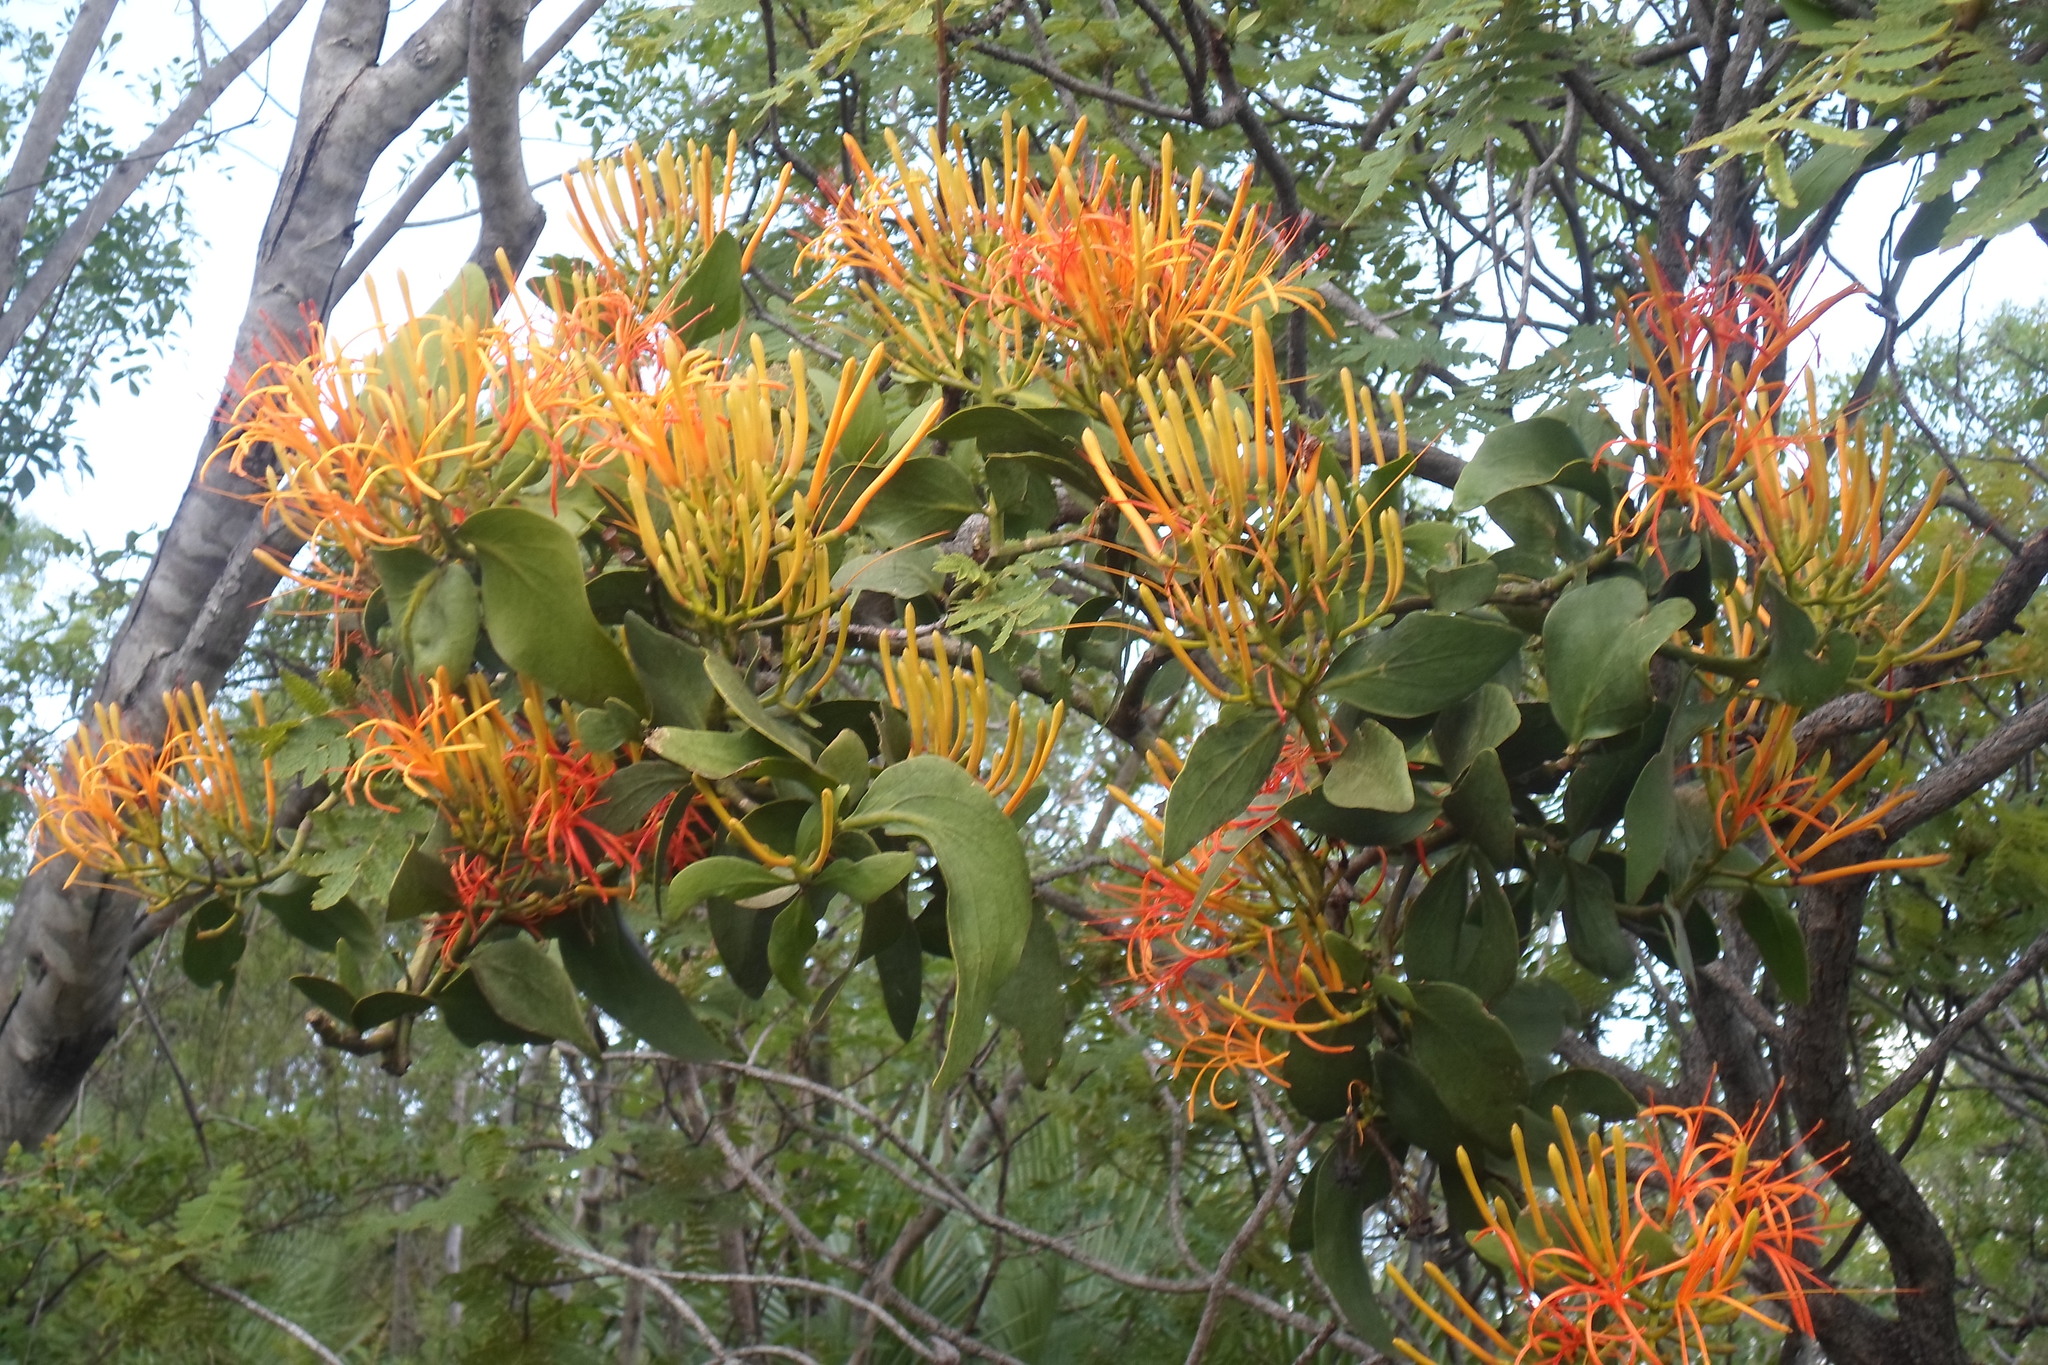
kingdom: Plantae
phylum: Tracheophyta
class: Magnoliopsida
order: Santalales
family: Loranthaceae
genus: Psittacanthus
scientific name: Psittacanthus calyculatus
